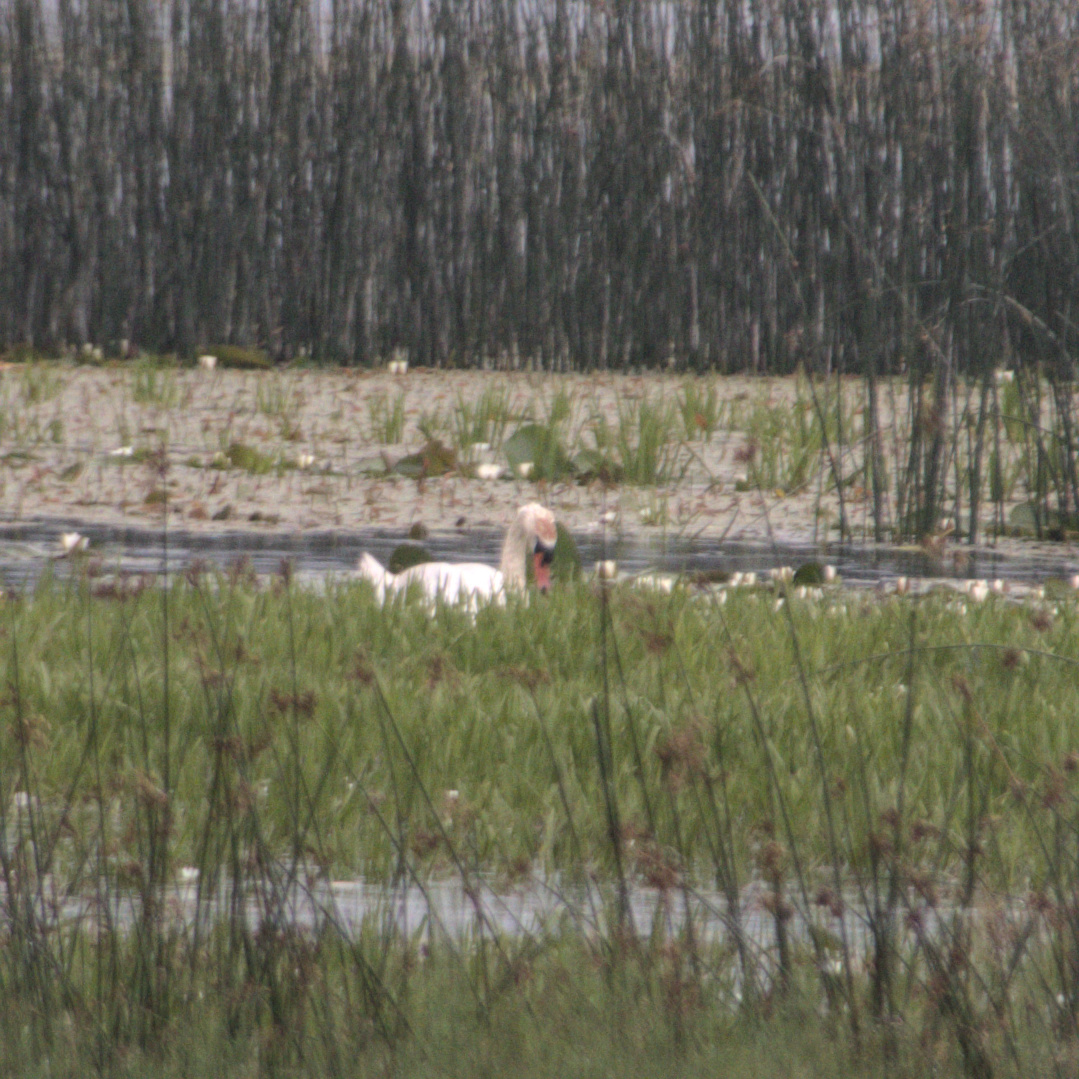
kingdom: Animalia
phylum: Chordata
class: Aves
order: Anseriformes
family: Anatidae
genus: Cygnus
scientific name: Cygnus olor
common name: Mute swan
